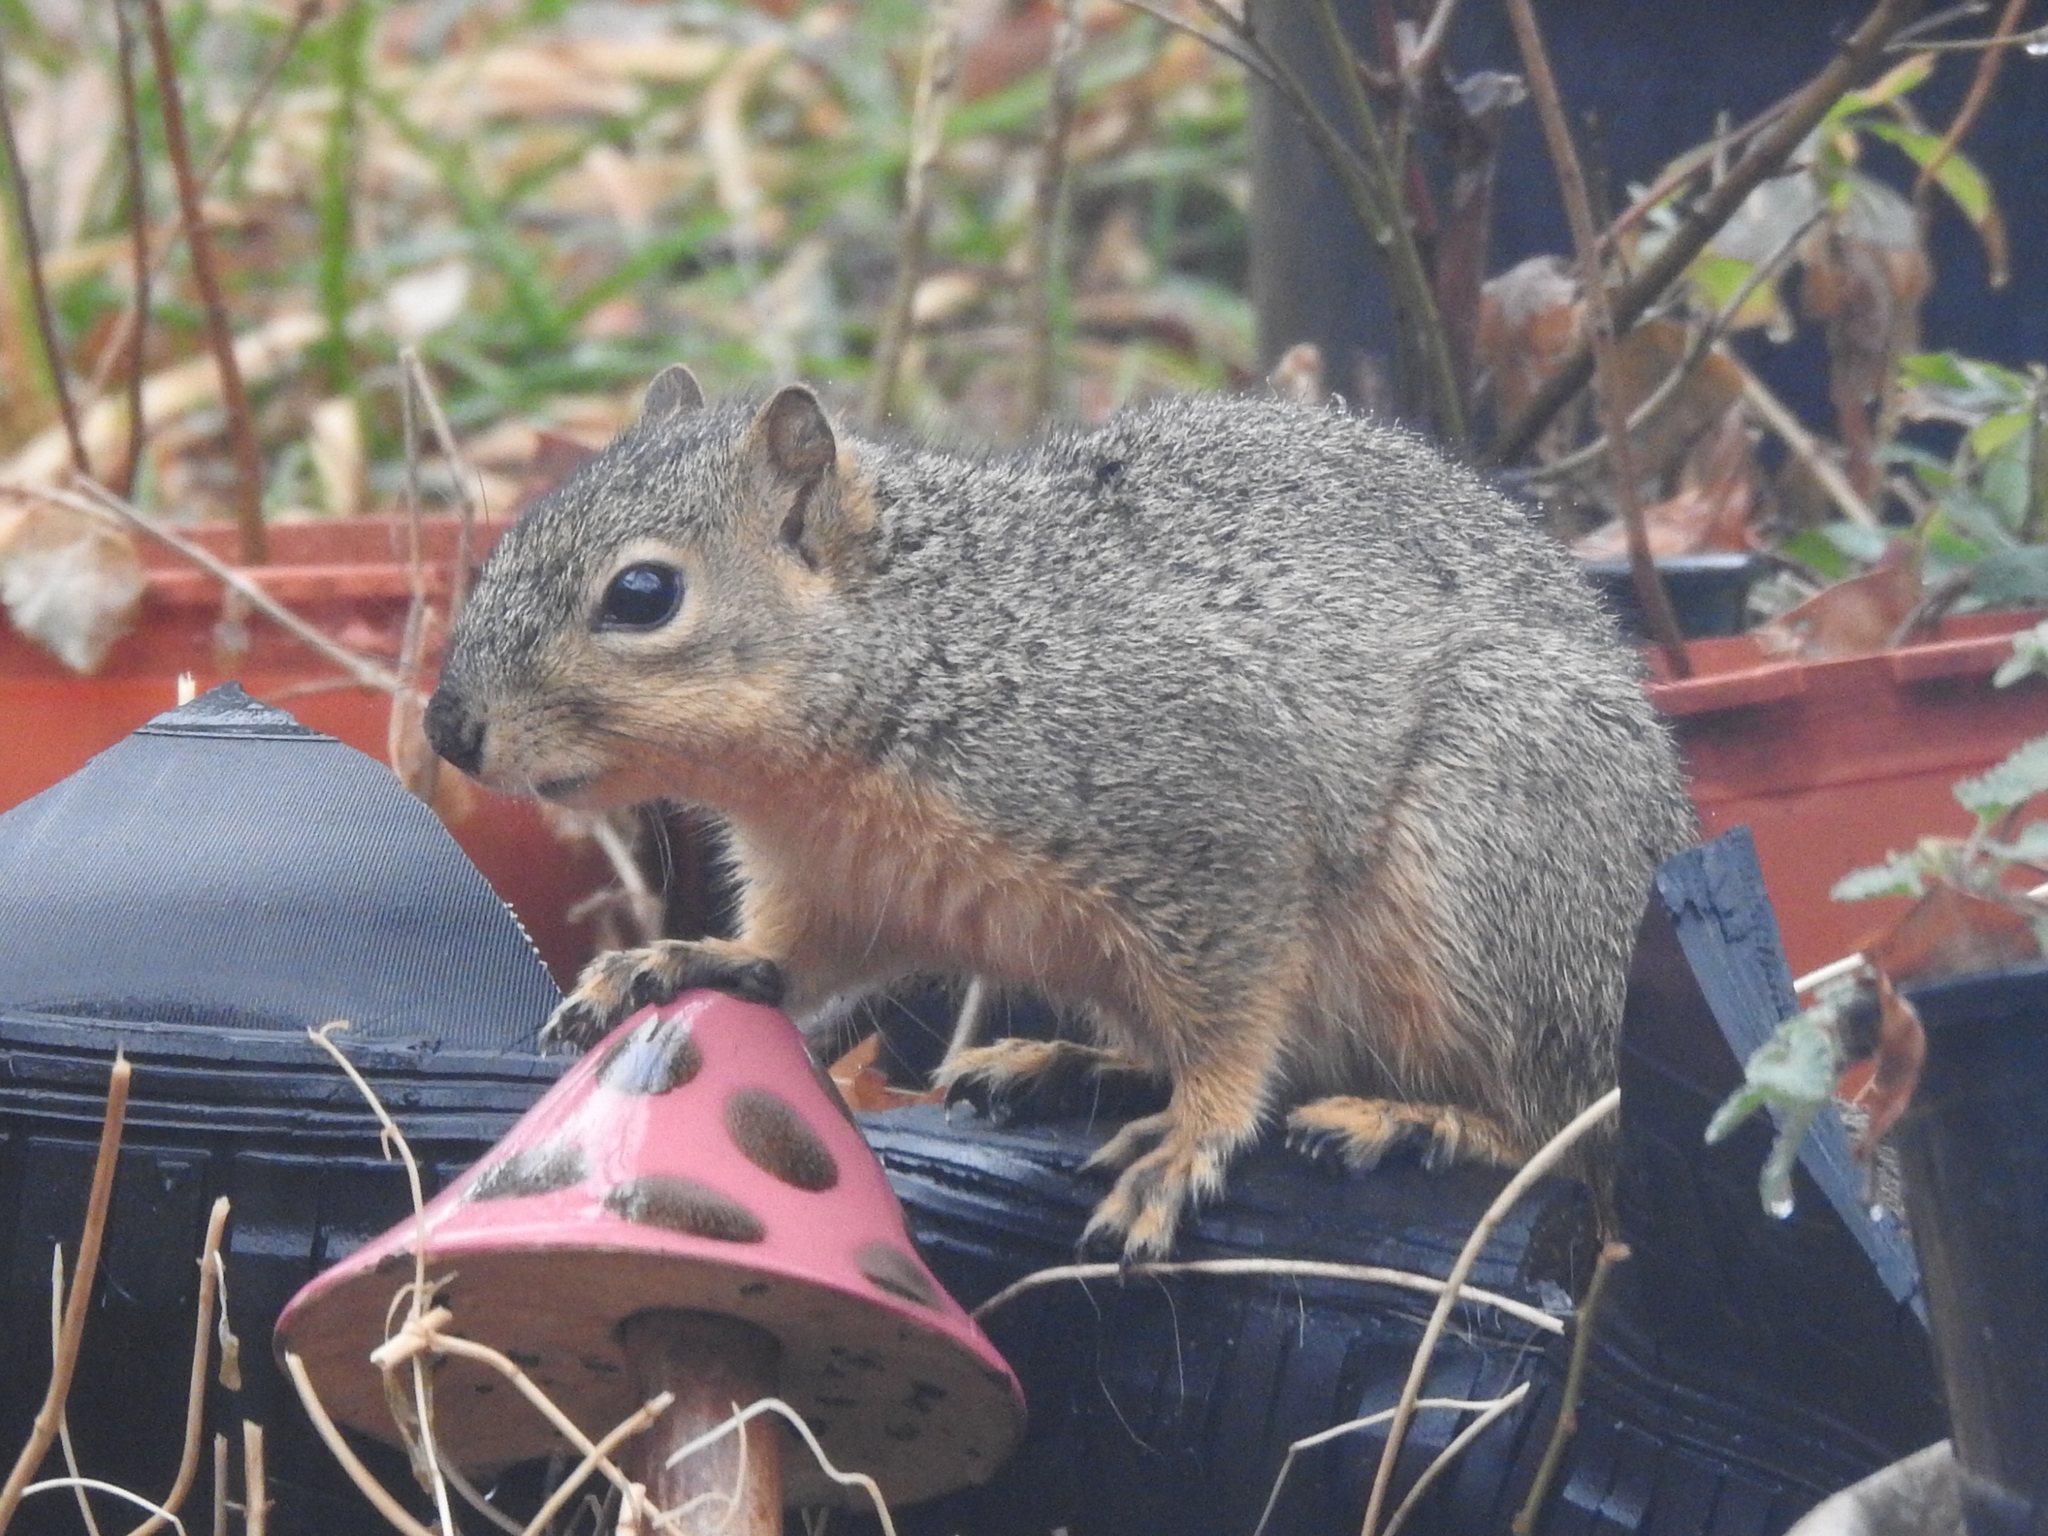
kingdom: Animalia
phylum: Chordata
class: Mammalia
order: Rodentia
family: Sciuridae
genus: Sciurus
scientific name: Sciurus niger
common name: Fox squirrel
